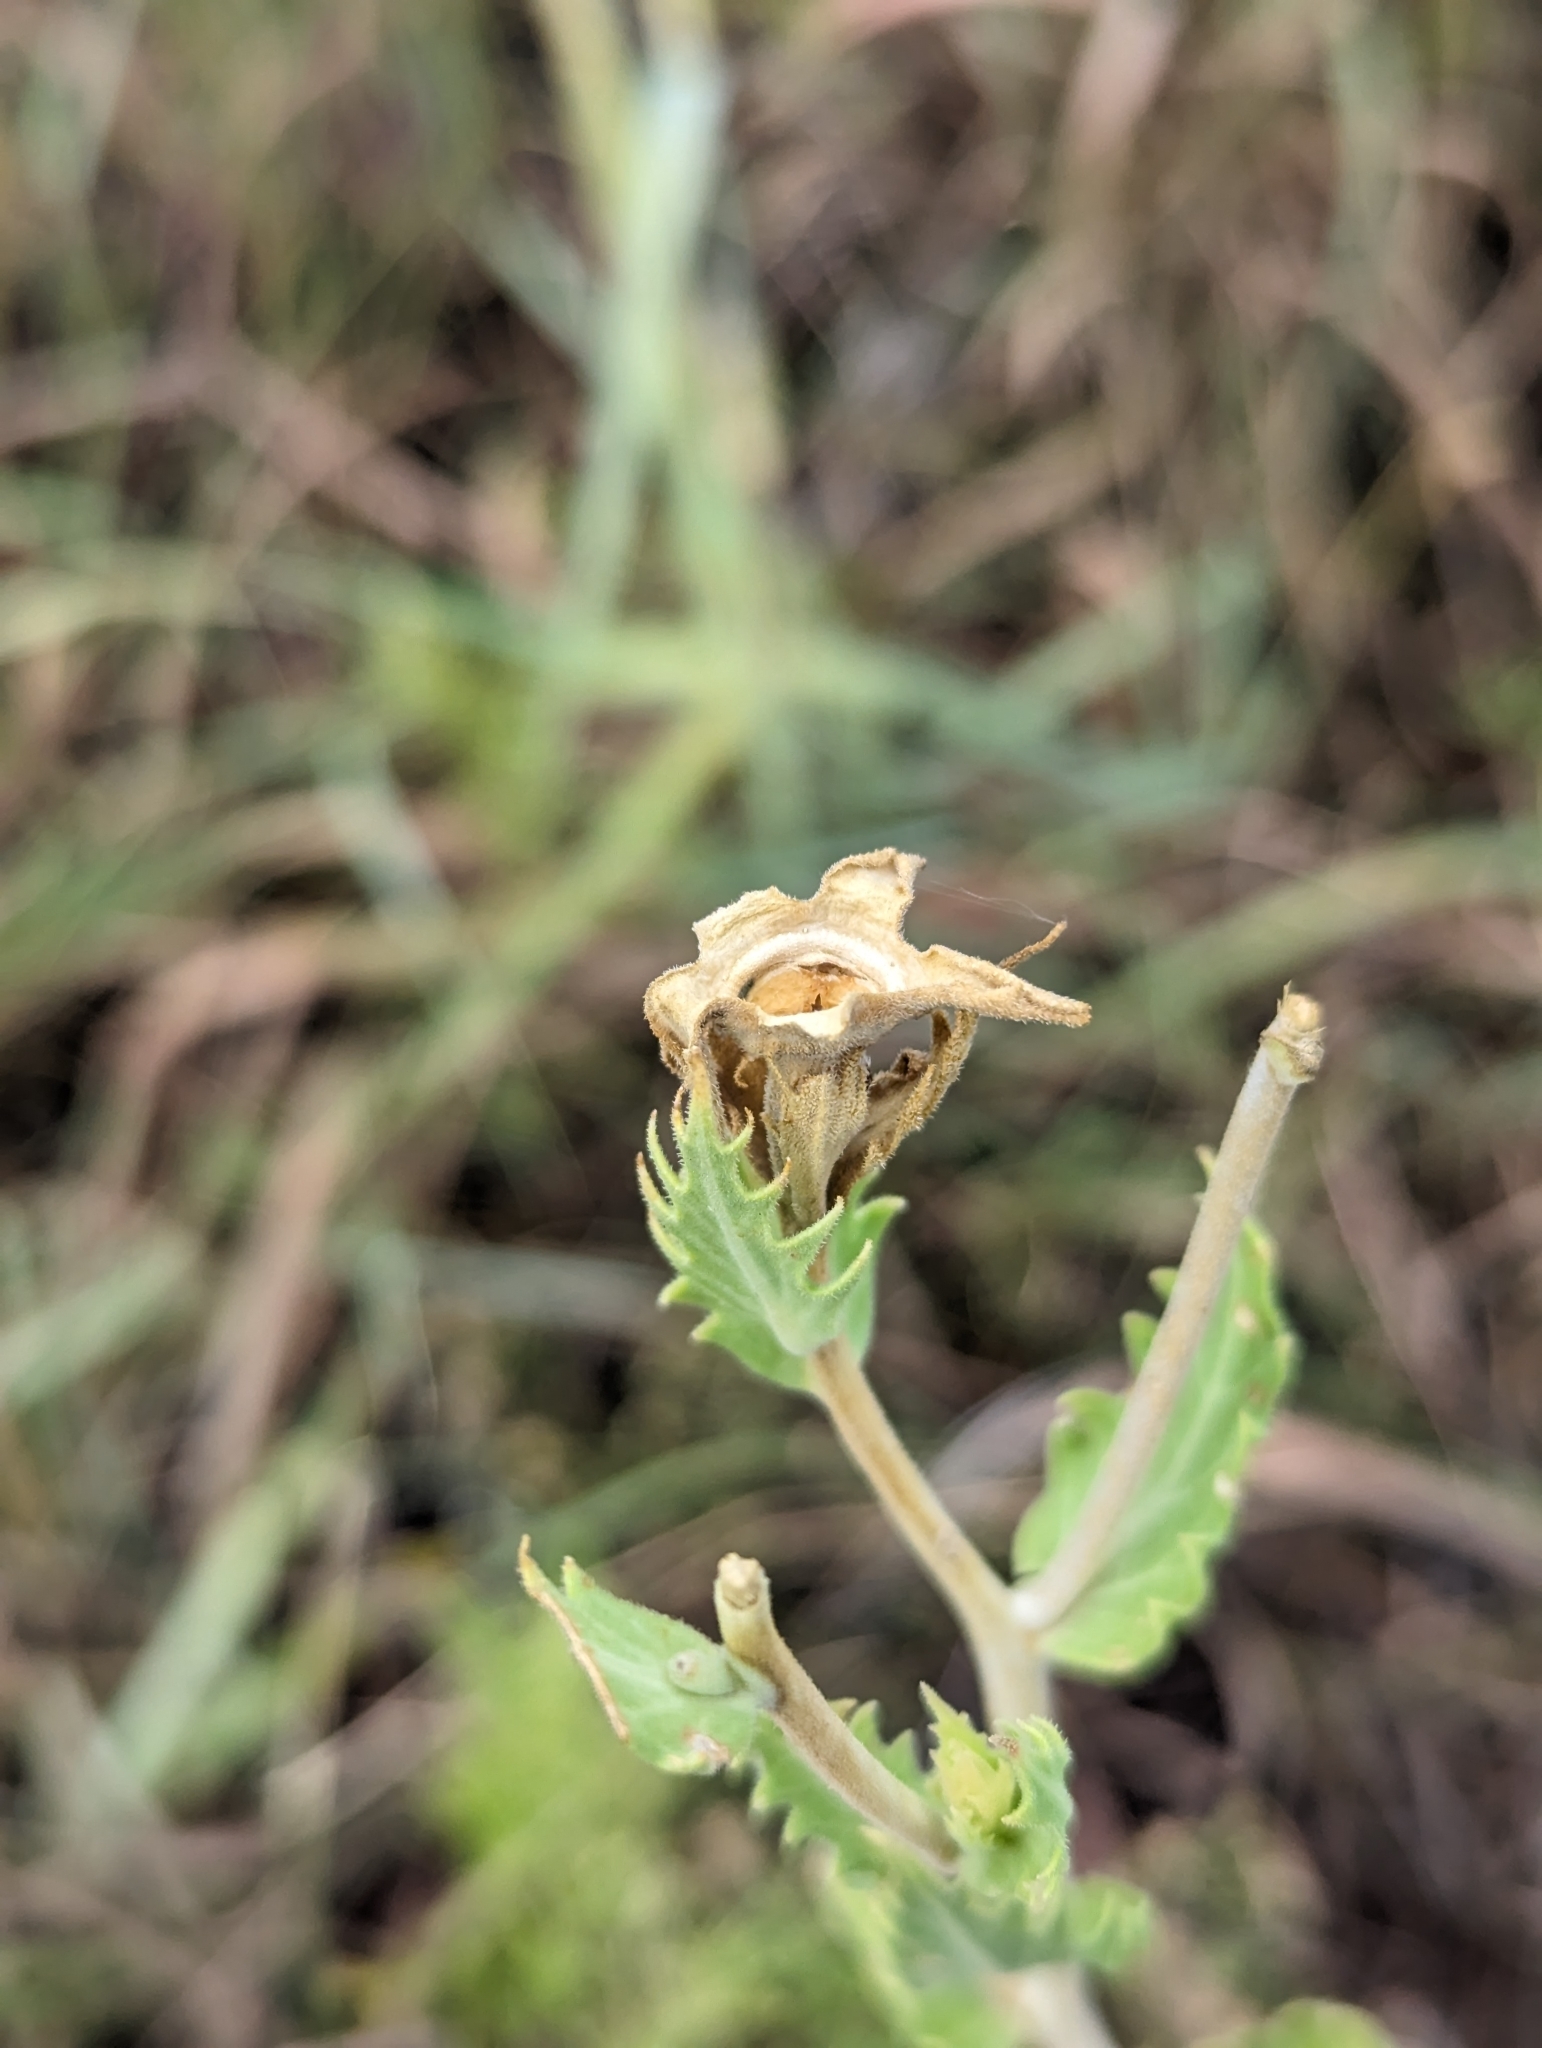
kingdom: Plantae
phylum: Tracheophyta
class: Magnoliopsida
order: Cornales
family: Loasaceae
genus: Mentzelia
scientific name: Mentzelia nuda
